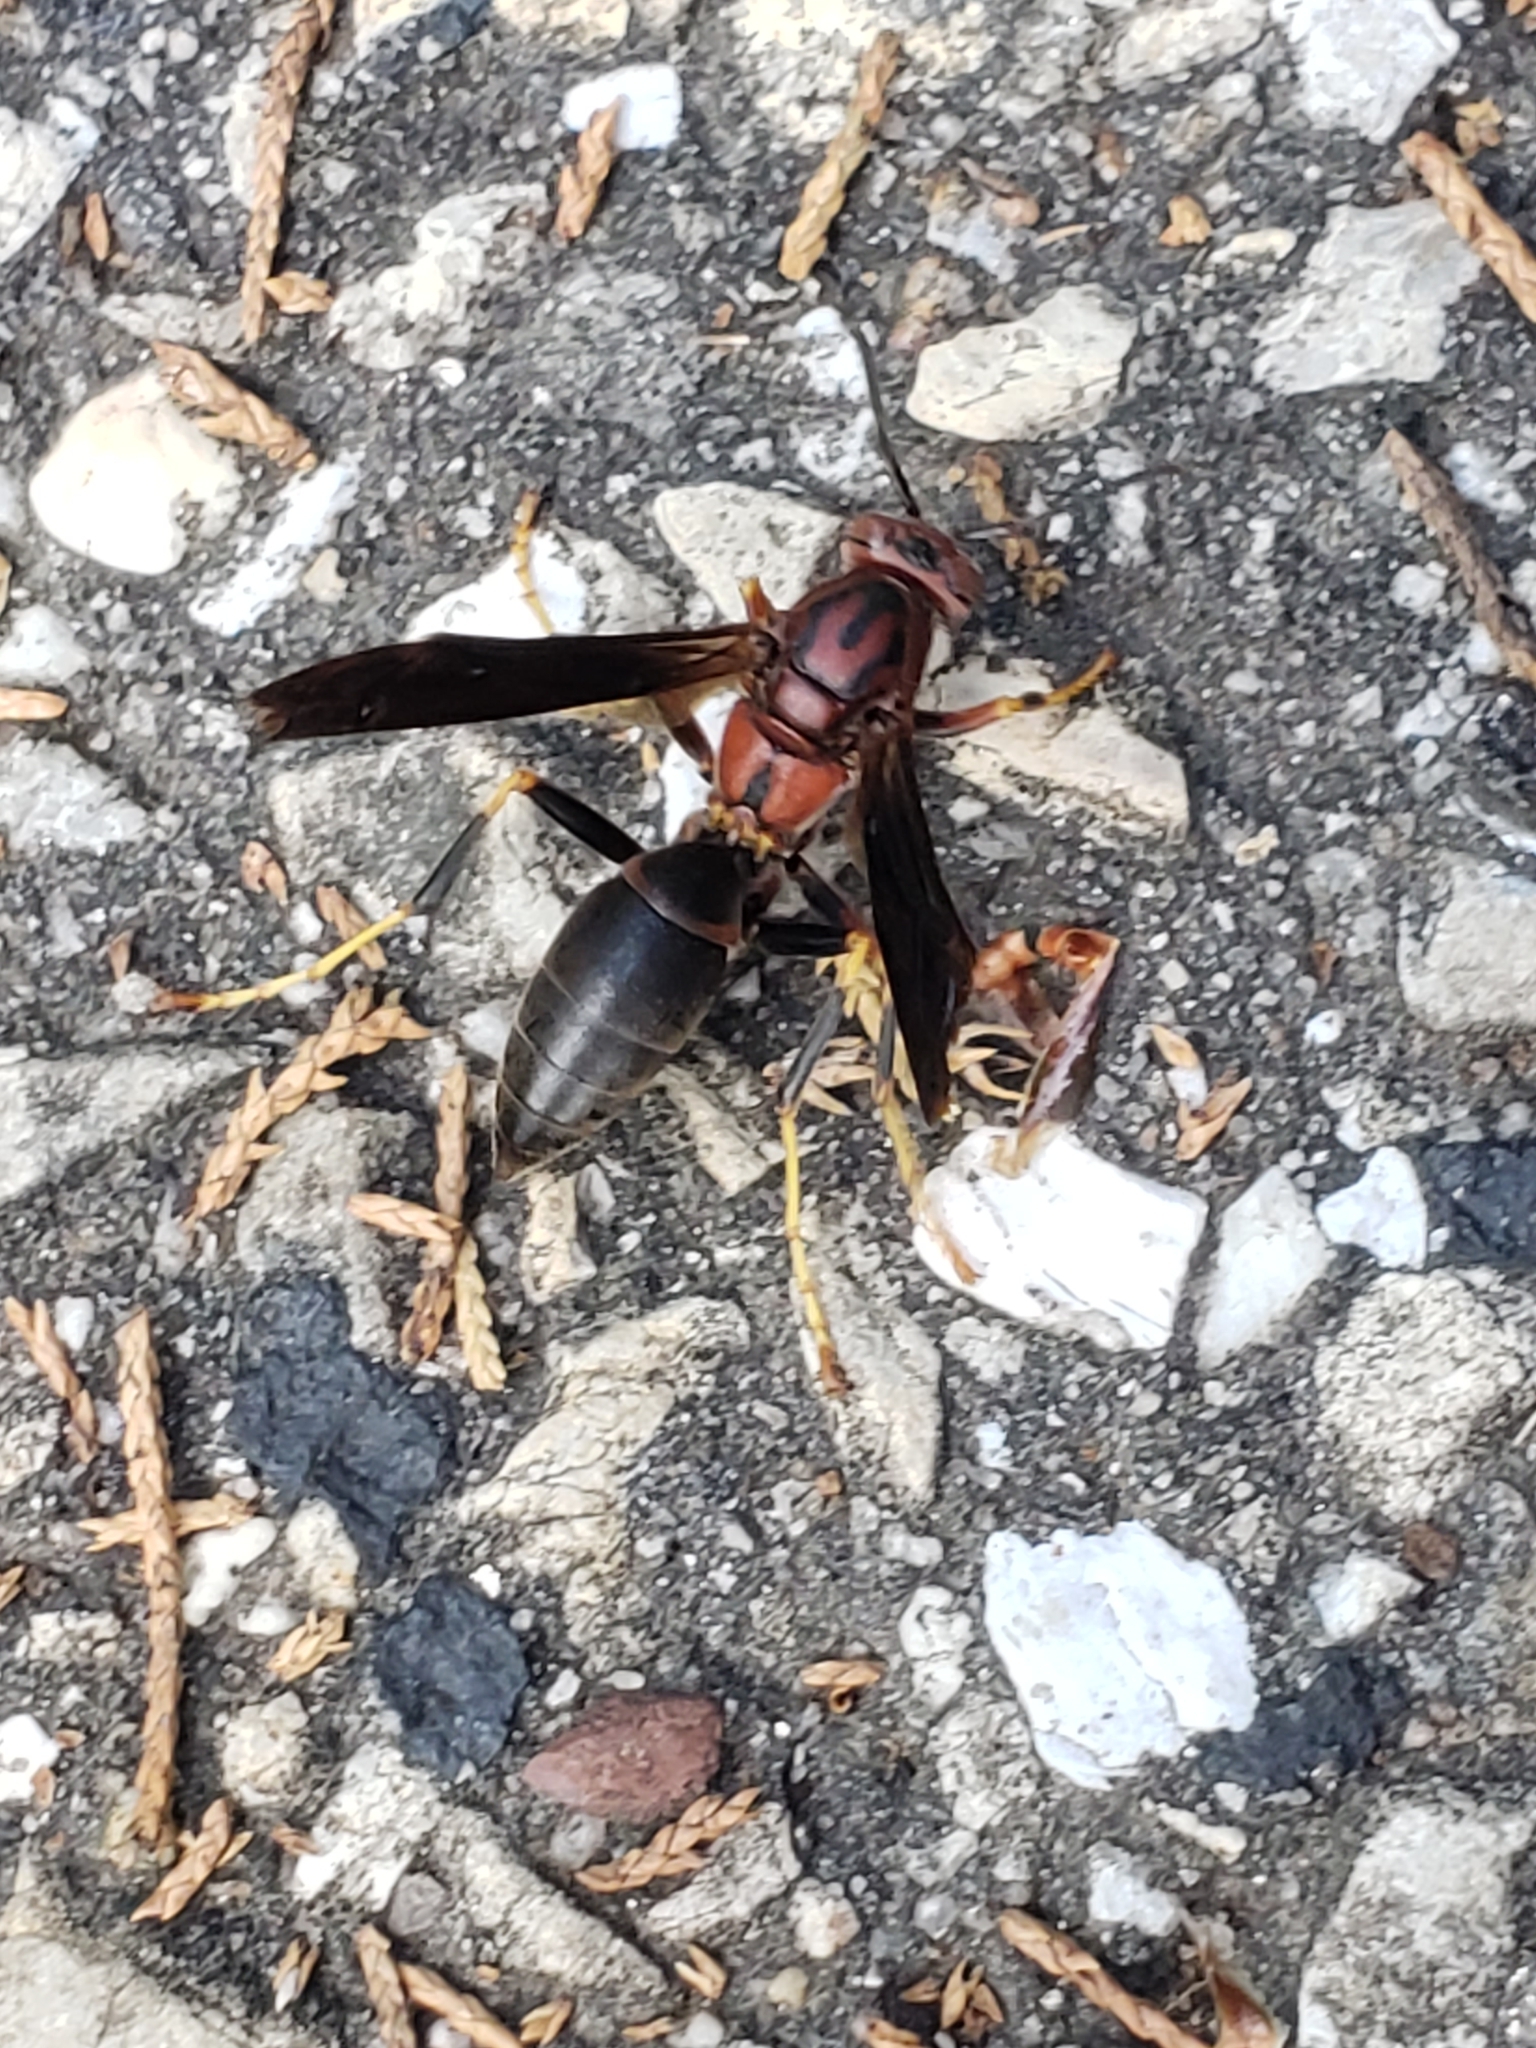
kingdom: Animalia
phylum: Arthropoda
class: Insecta
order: Hymenoptera
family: Eumenidae
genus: Polistes
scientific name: Polistes metricus
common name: Metric paper wasp
